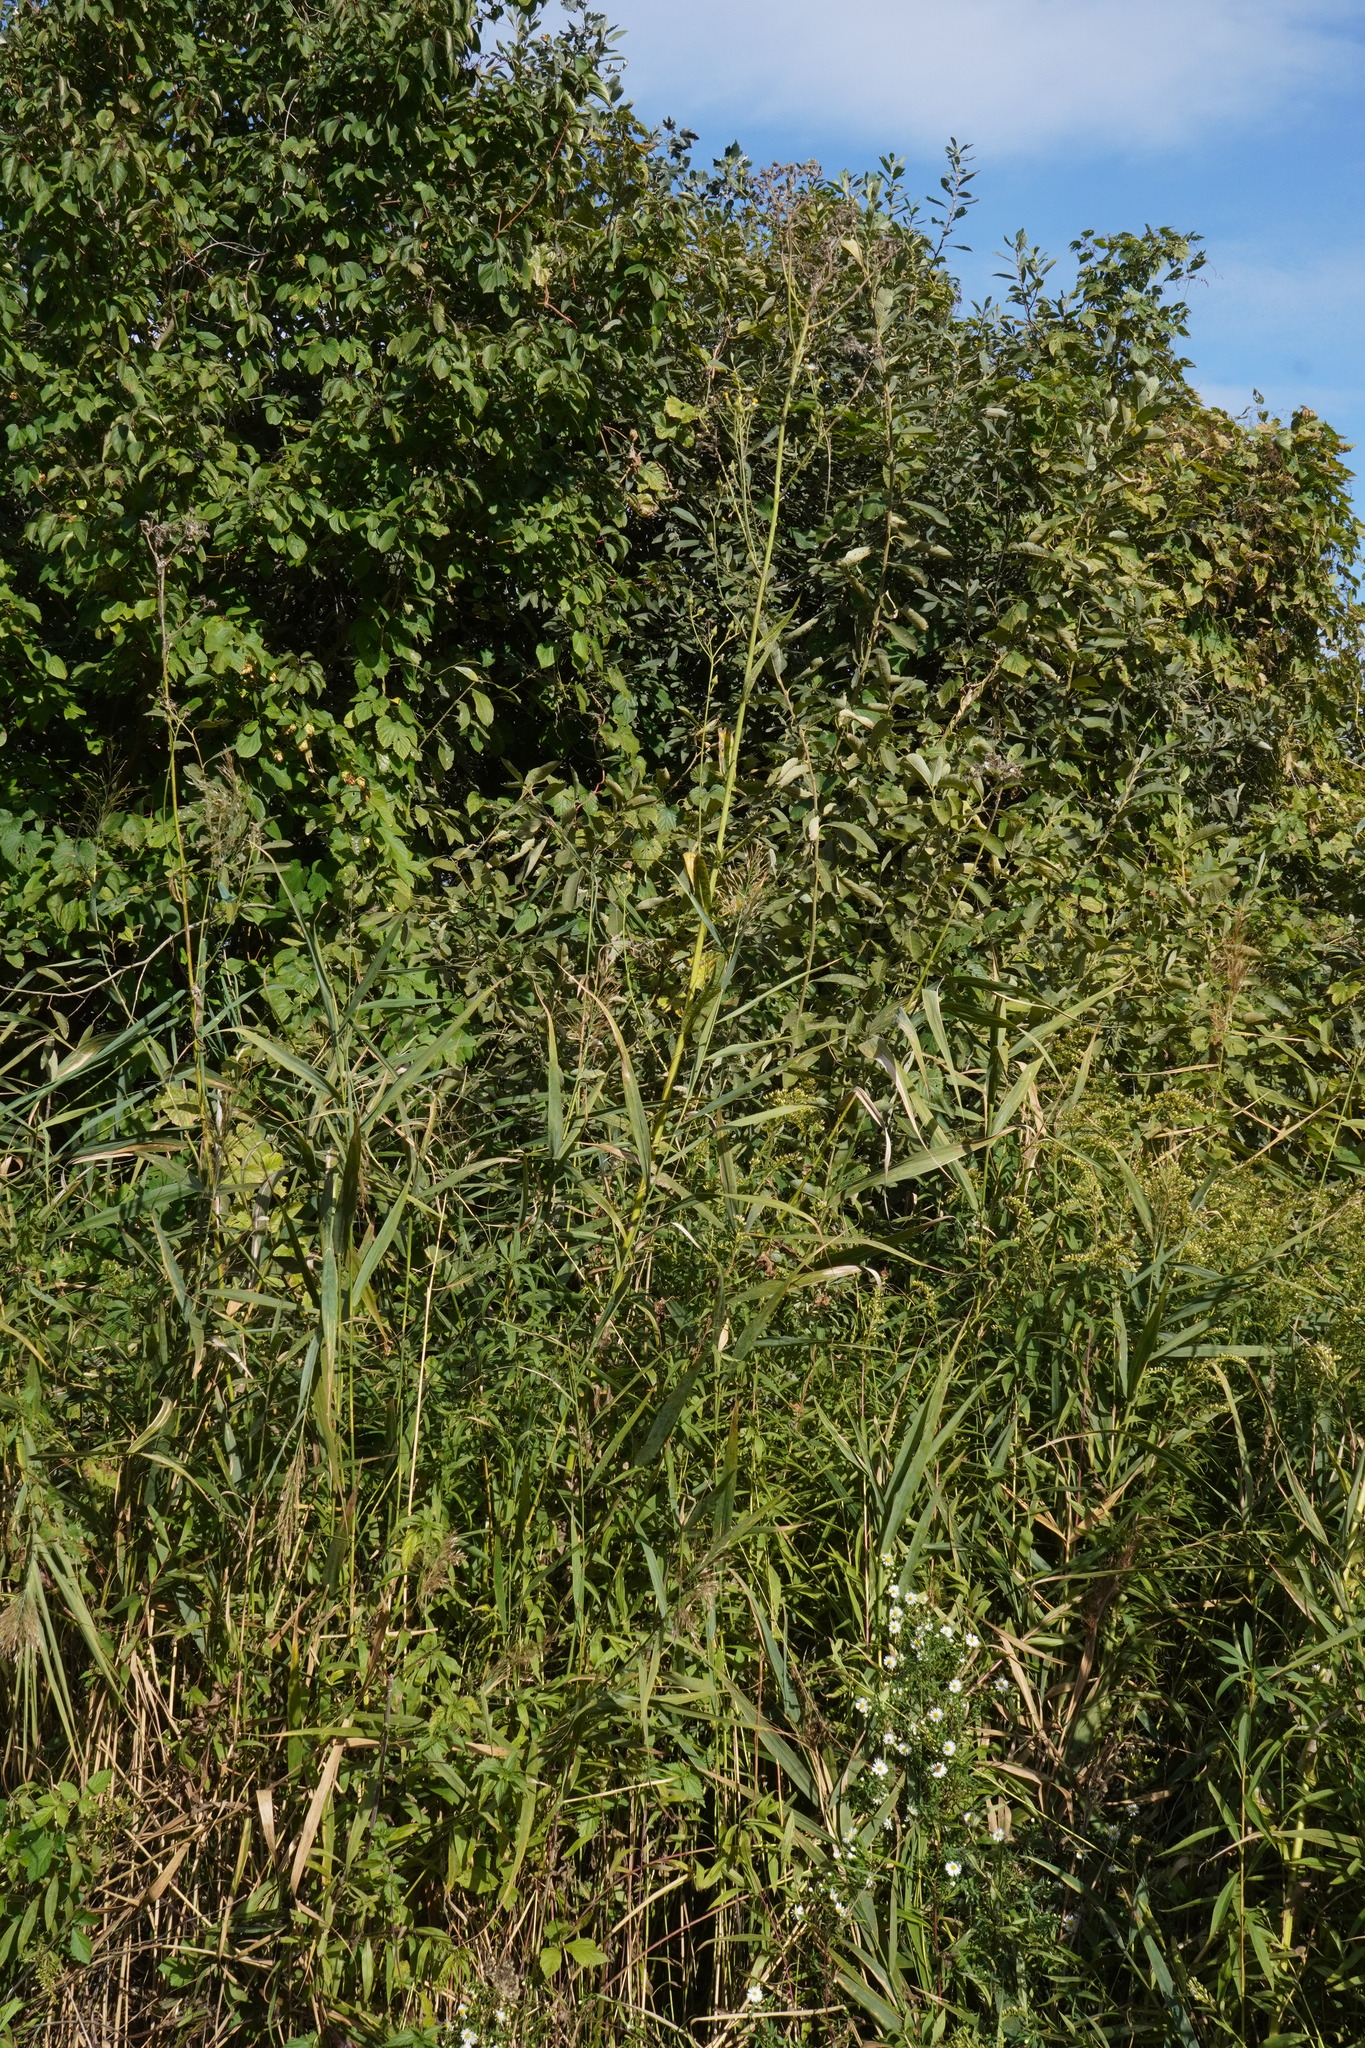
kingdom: Plantae
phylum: Tracheophyta
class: Magnoliopsida
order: Asterales
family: Asteraceae
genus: Sonchus
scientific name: Sonchus palustris
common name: Marsh sow-thistle
